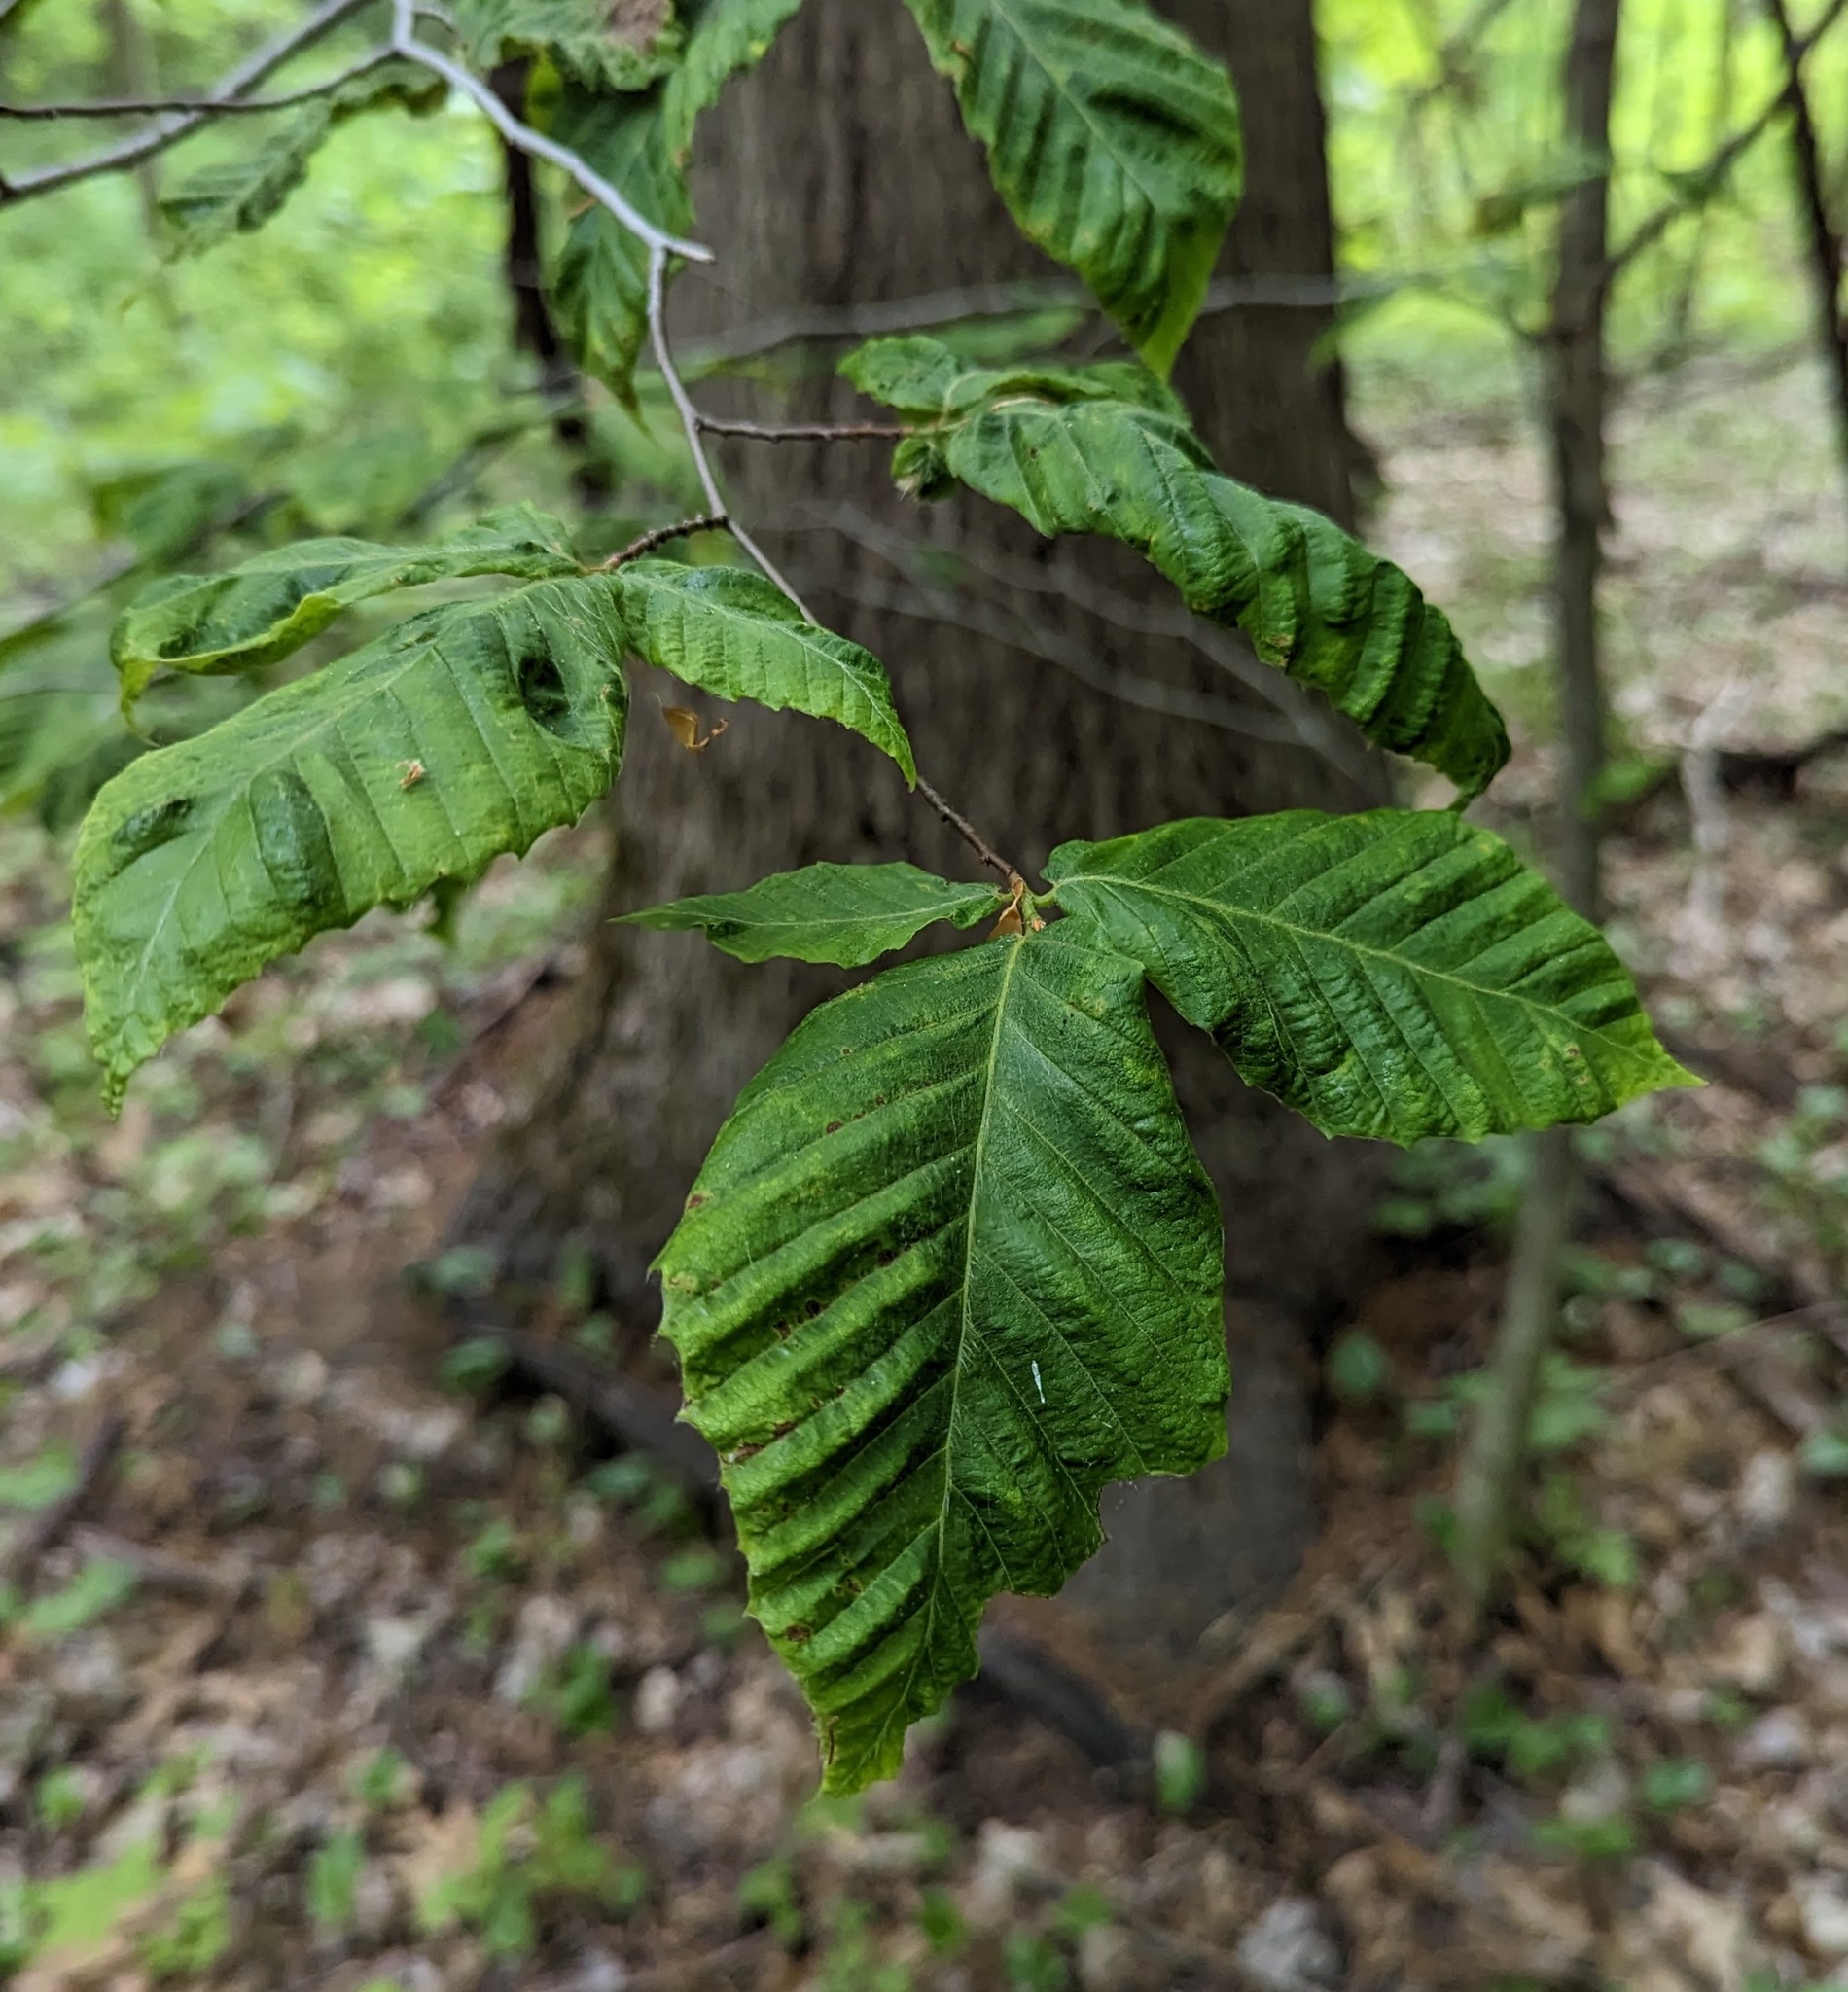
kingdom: Plantae
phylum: Tracheophyta
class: Magnoliopsida
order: Fagales
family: Fagaceae
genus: Fagus
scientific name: Fagus grandifolia
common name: American beech
